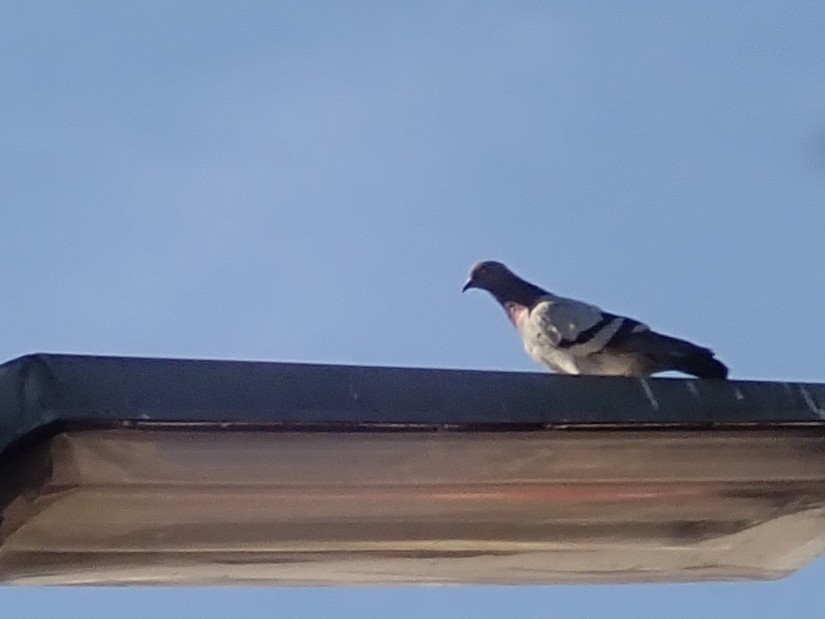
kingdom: Animalia
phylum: Chordata
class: Aves
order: Columbiformes
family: Columbidae
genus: Columba
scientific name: Columba livia
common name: Rock pigeon
